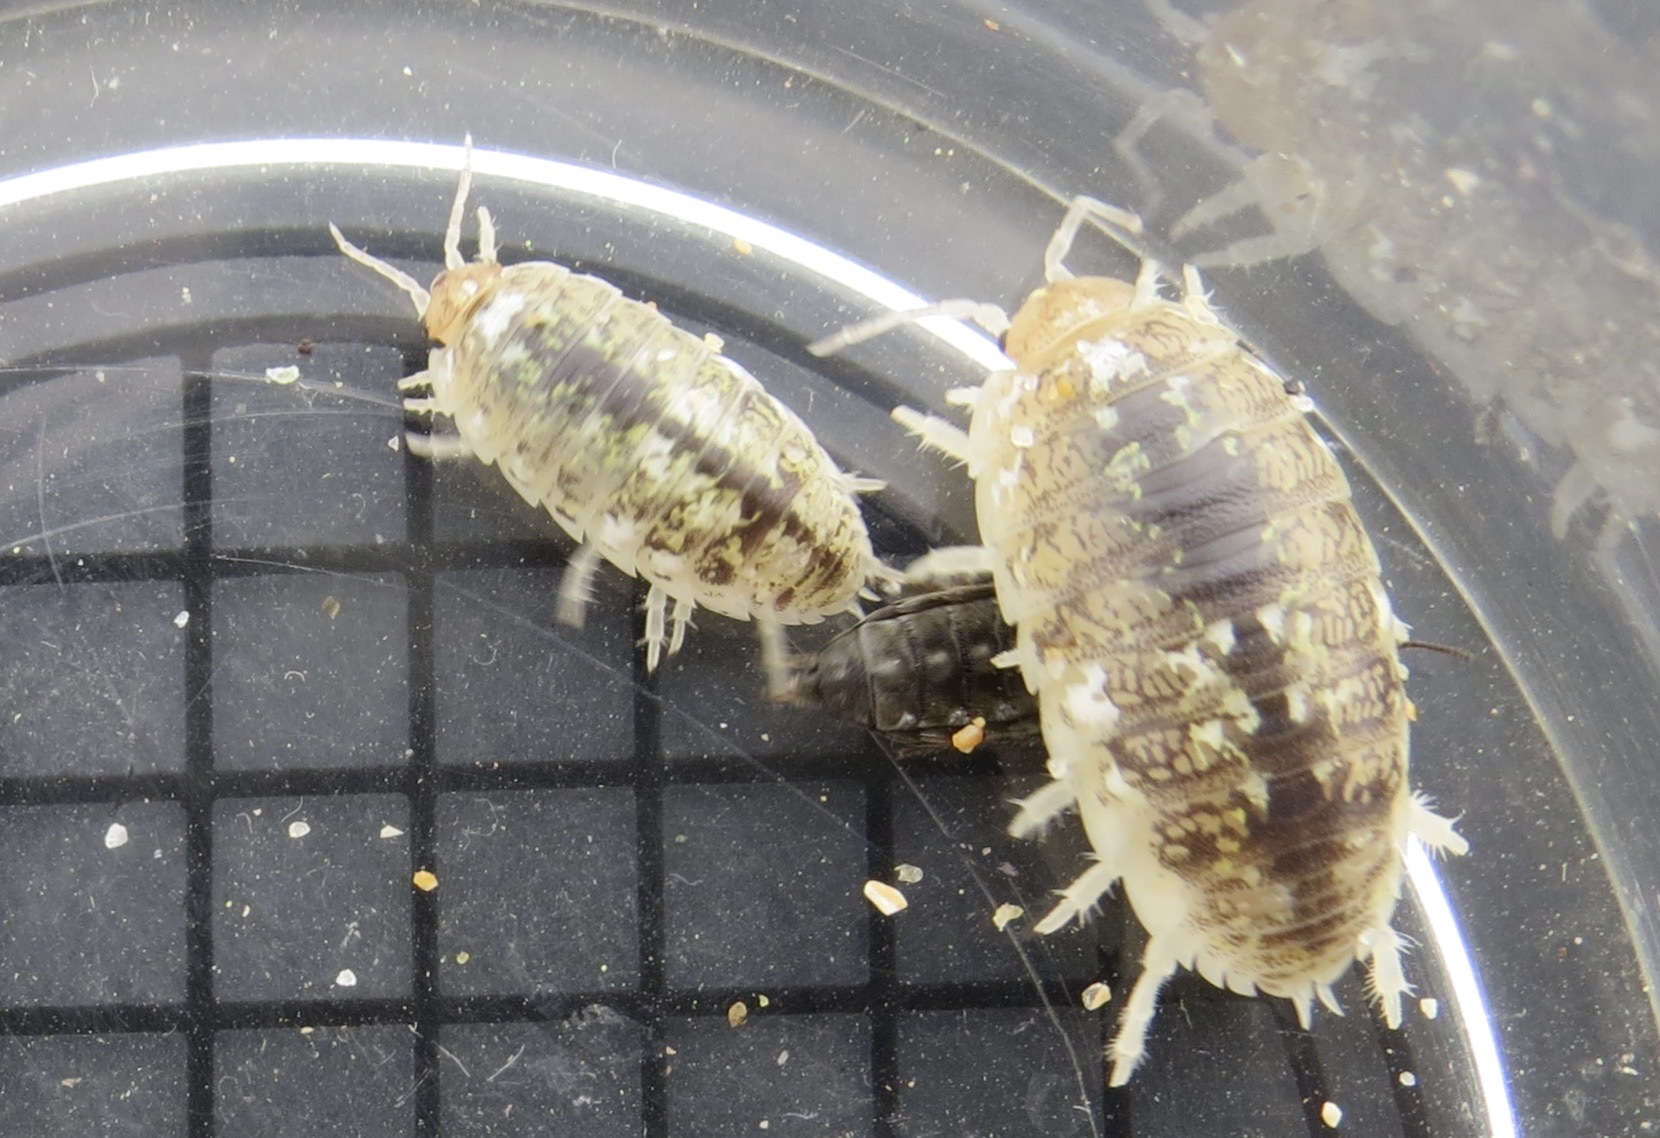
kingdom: Animalia
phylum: Arthropoda
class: Malacostraca
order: Isopoda
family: Alloniscidae
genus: Alloniscus
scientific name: Alloniscus perconvexus
